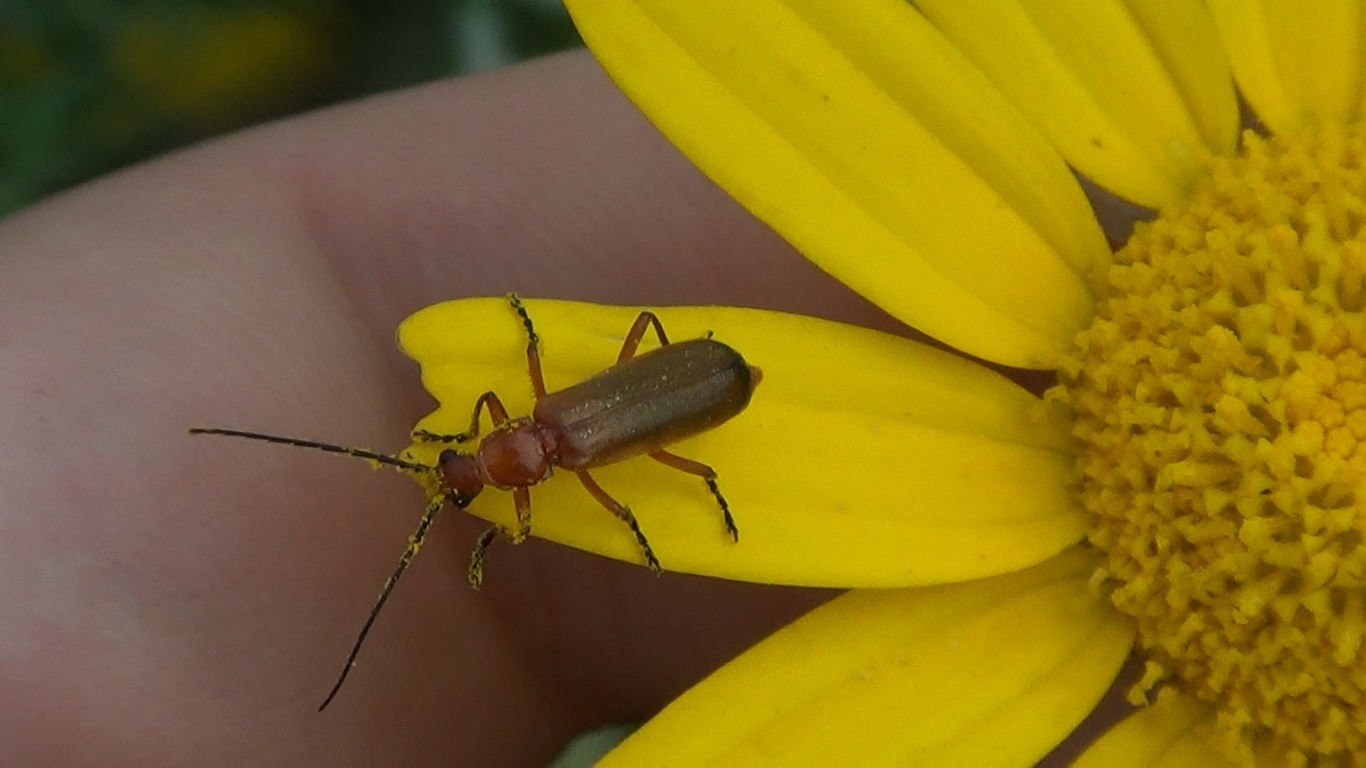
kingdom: Animalia
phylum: Arthropoda
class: Insecta
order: Coleoptera
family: Cantharidae
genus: Rhagonycha
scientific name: Rhagonycha fulva
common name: Common red soldier beetle
